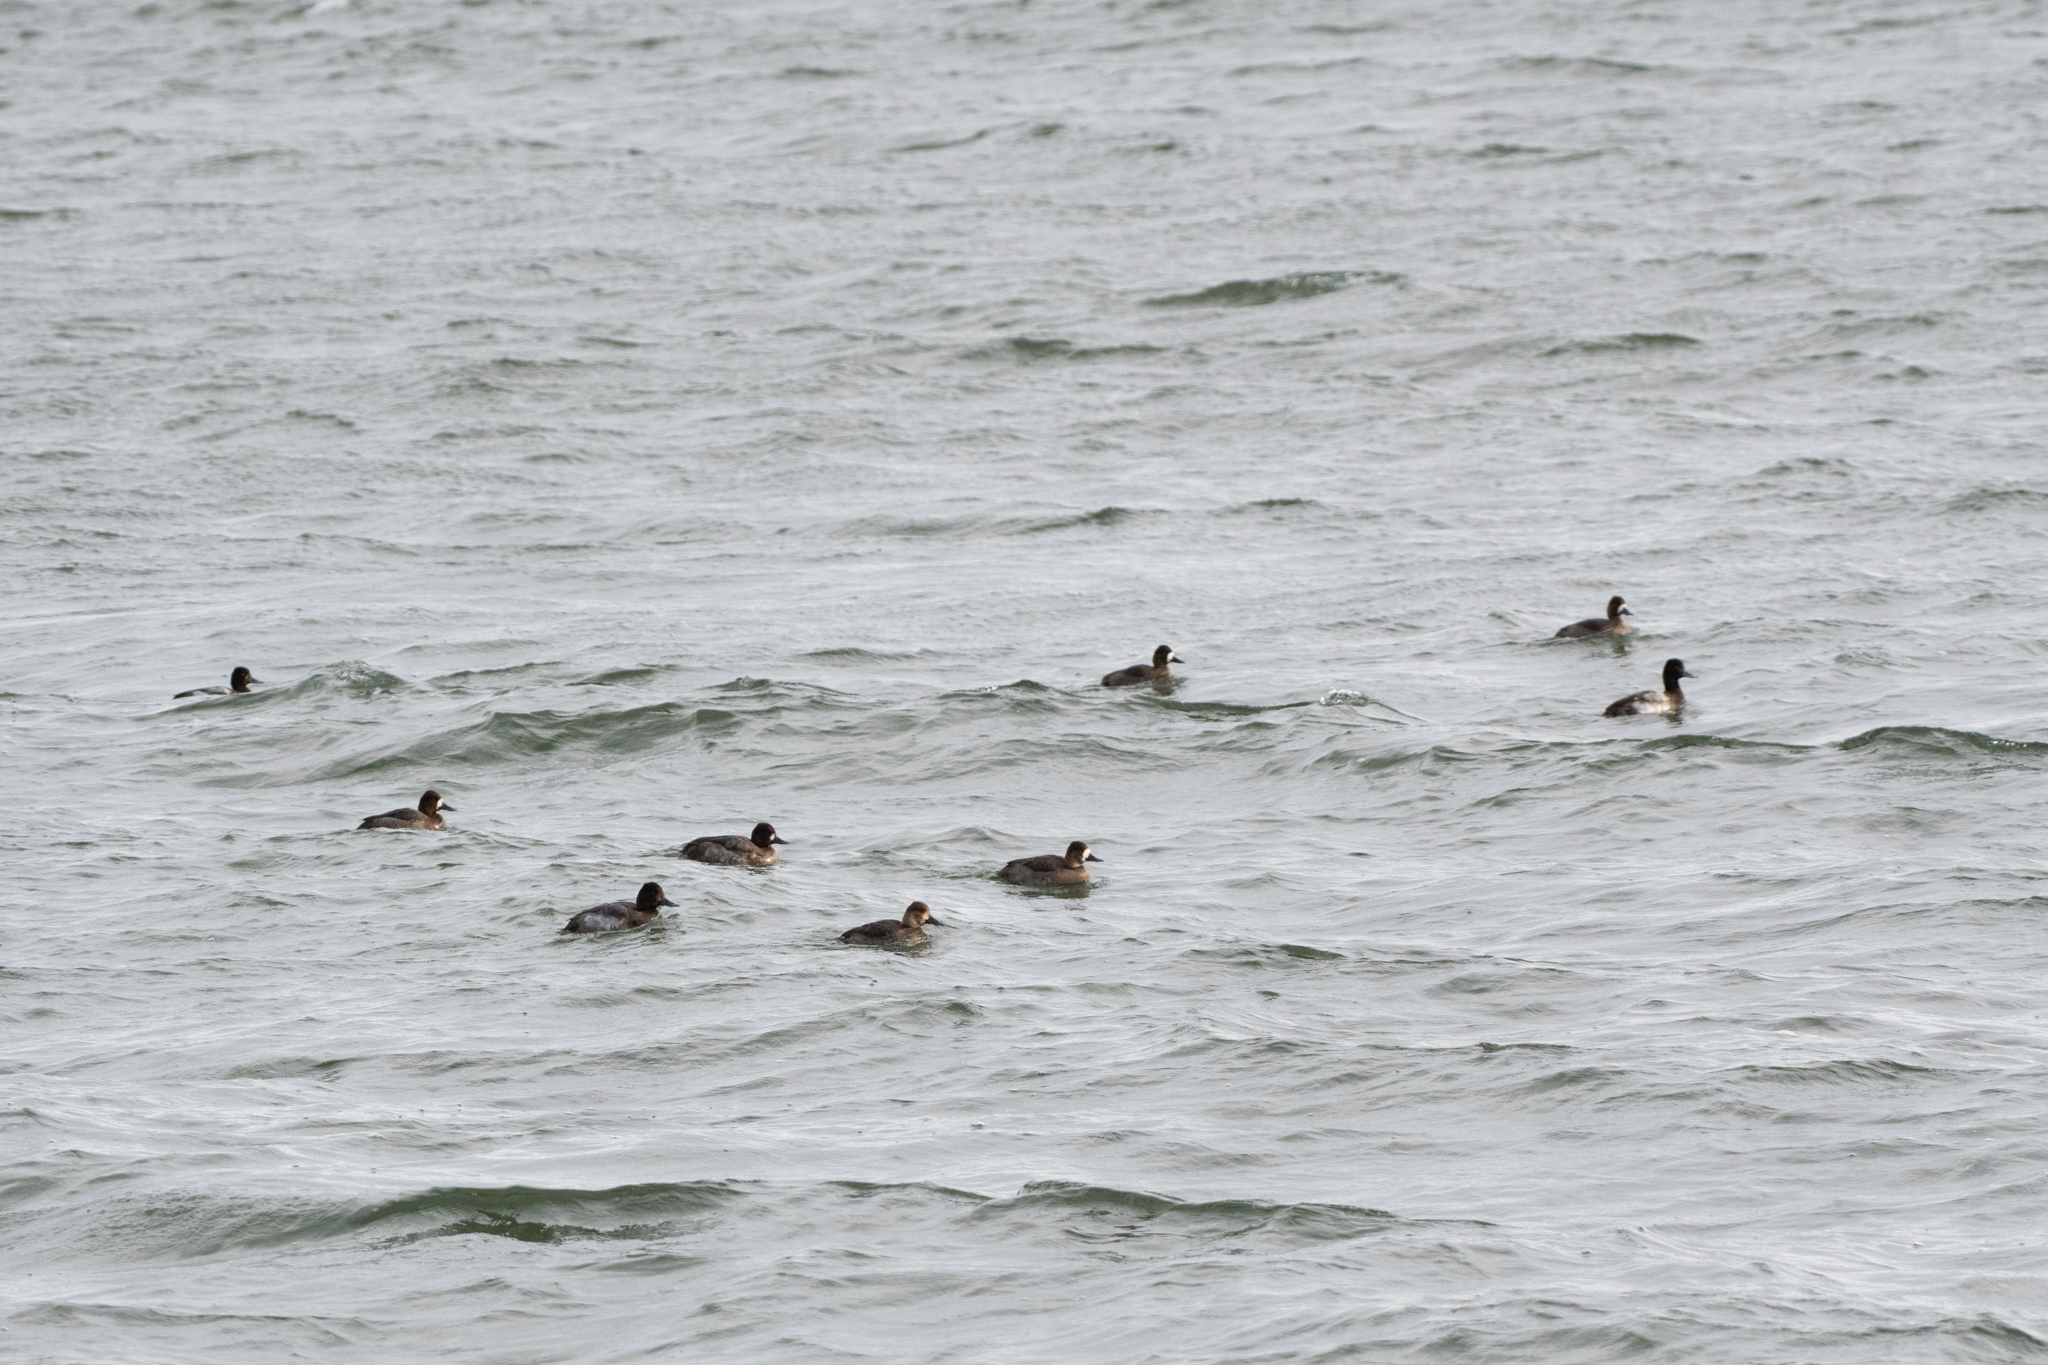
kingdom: Animalia
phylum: Chordata
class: Aves
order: Anseriformes
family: Anatidae
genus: Aythya
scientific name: Aythya affinis
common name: Lesser scaup
